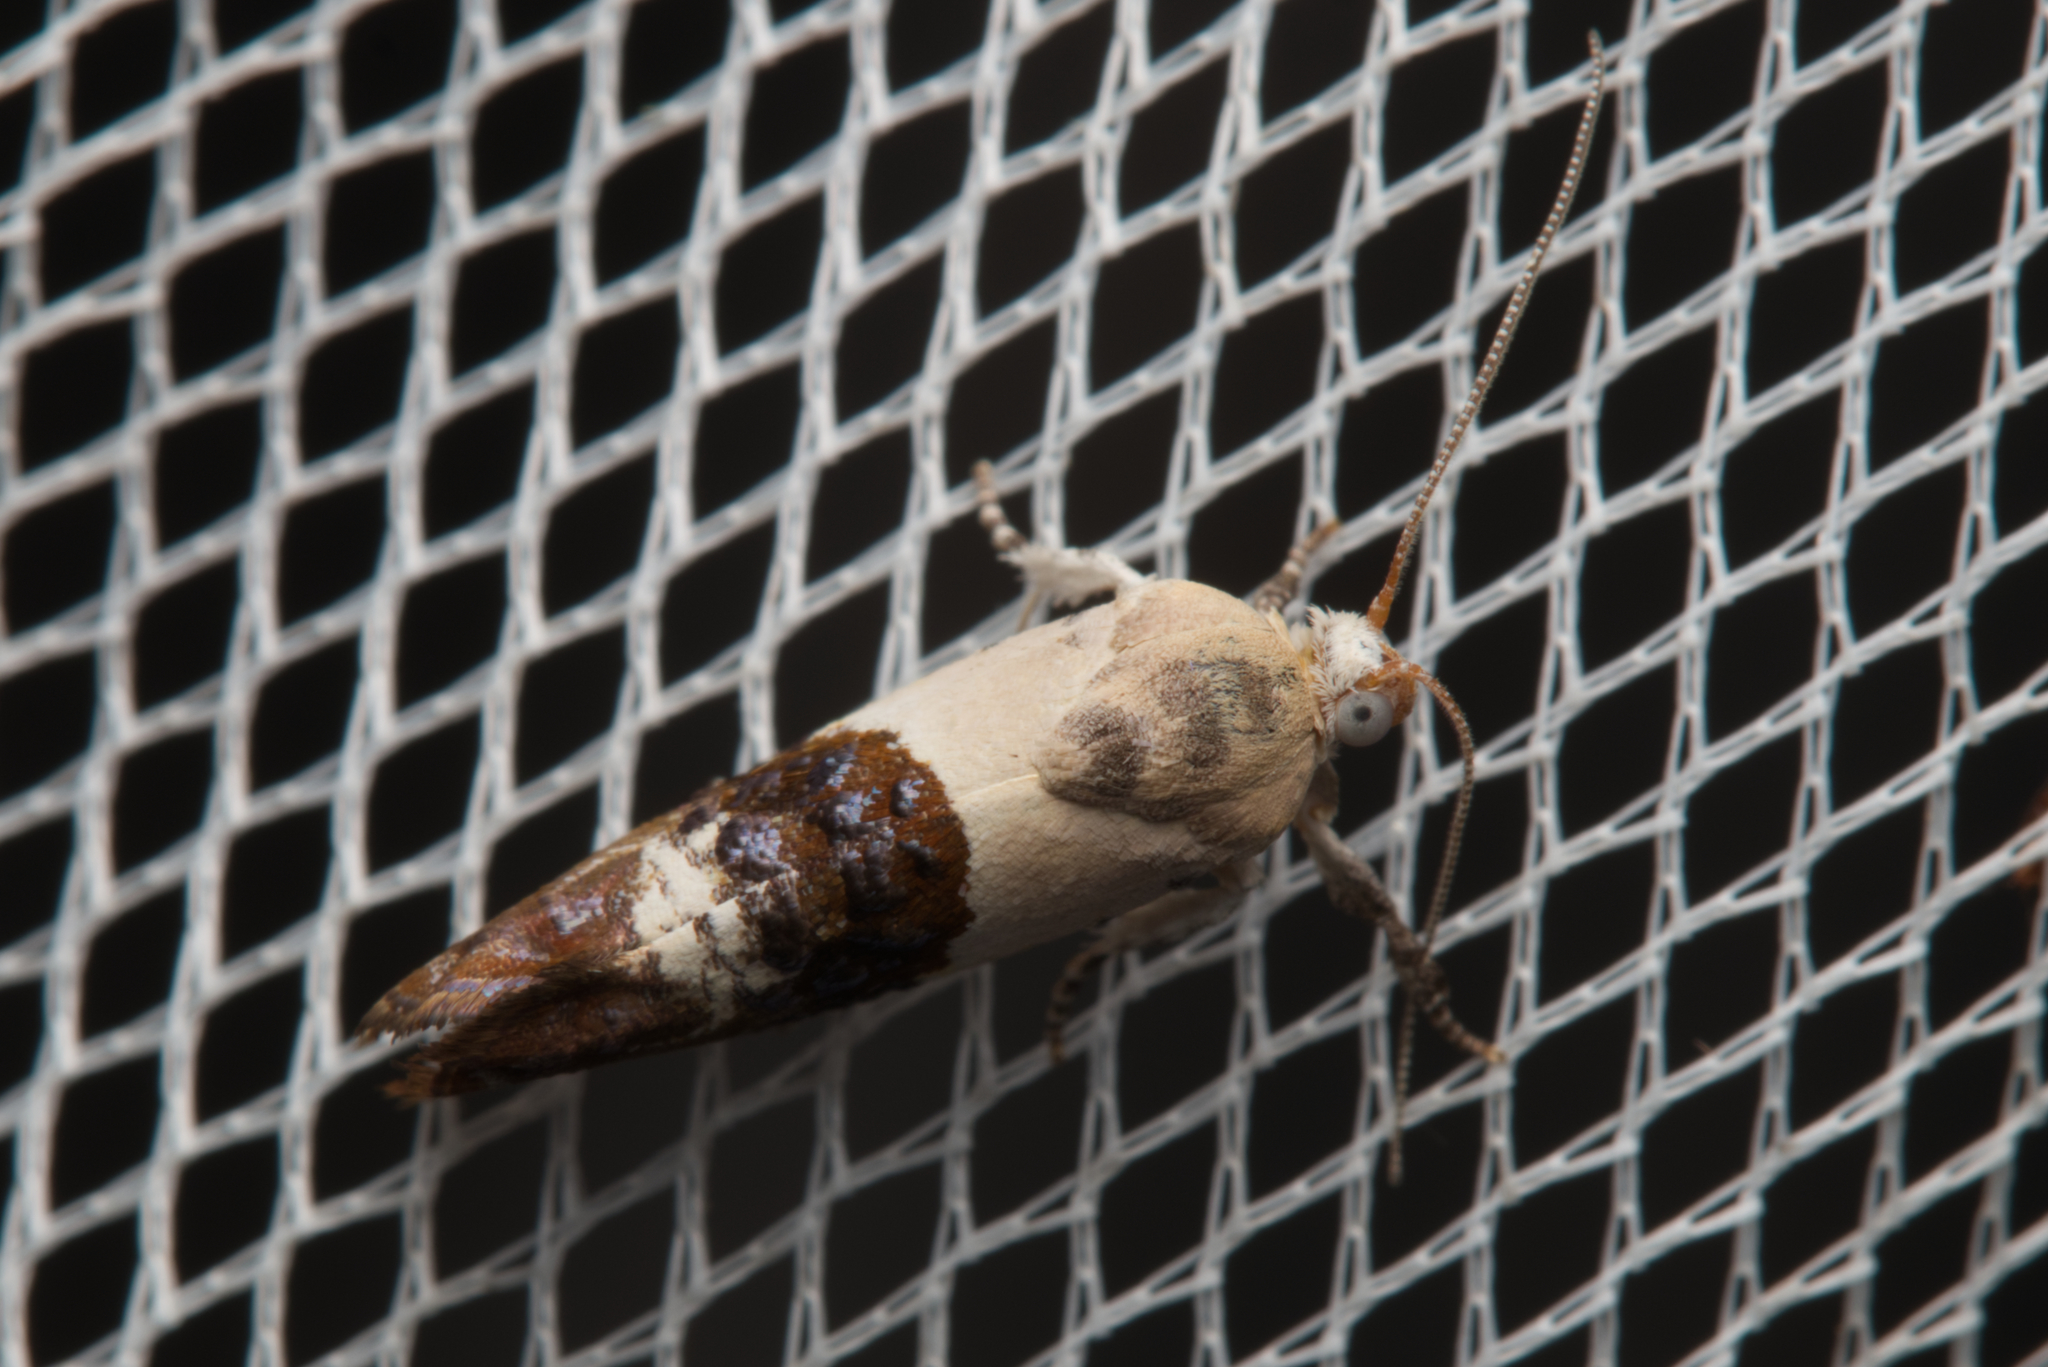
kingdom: Animalia
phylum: Arthropoda
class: Insecta
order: Lepidoptera
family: Depressariidae
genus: Hypertropha
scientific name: Hypertropha chlaenota
